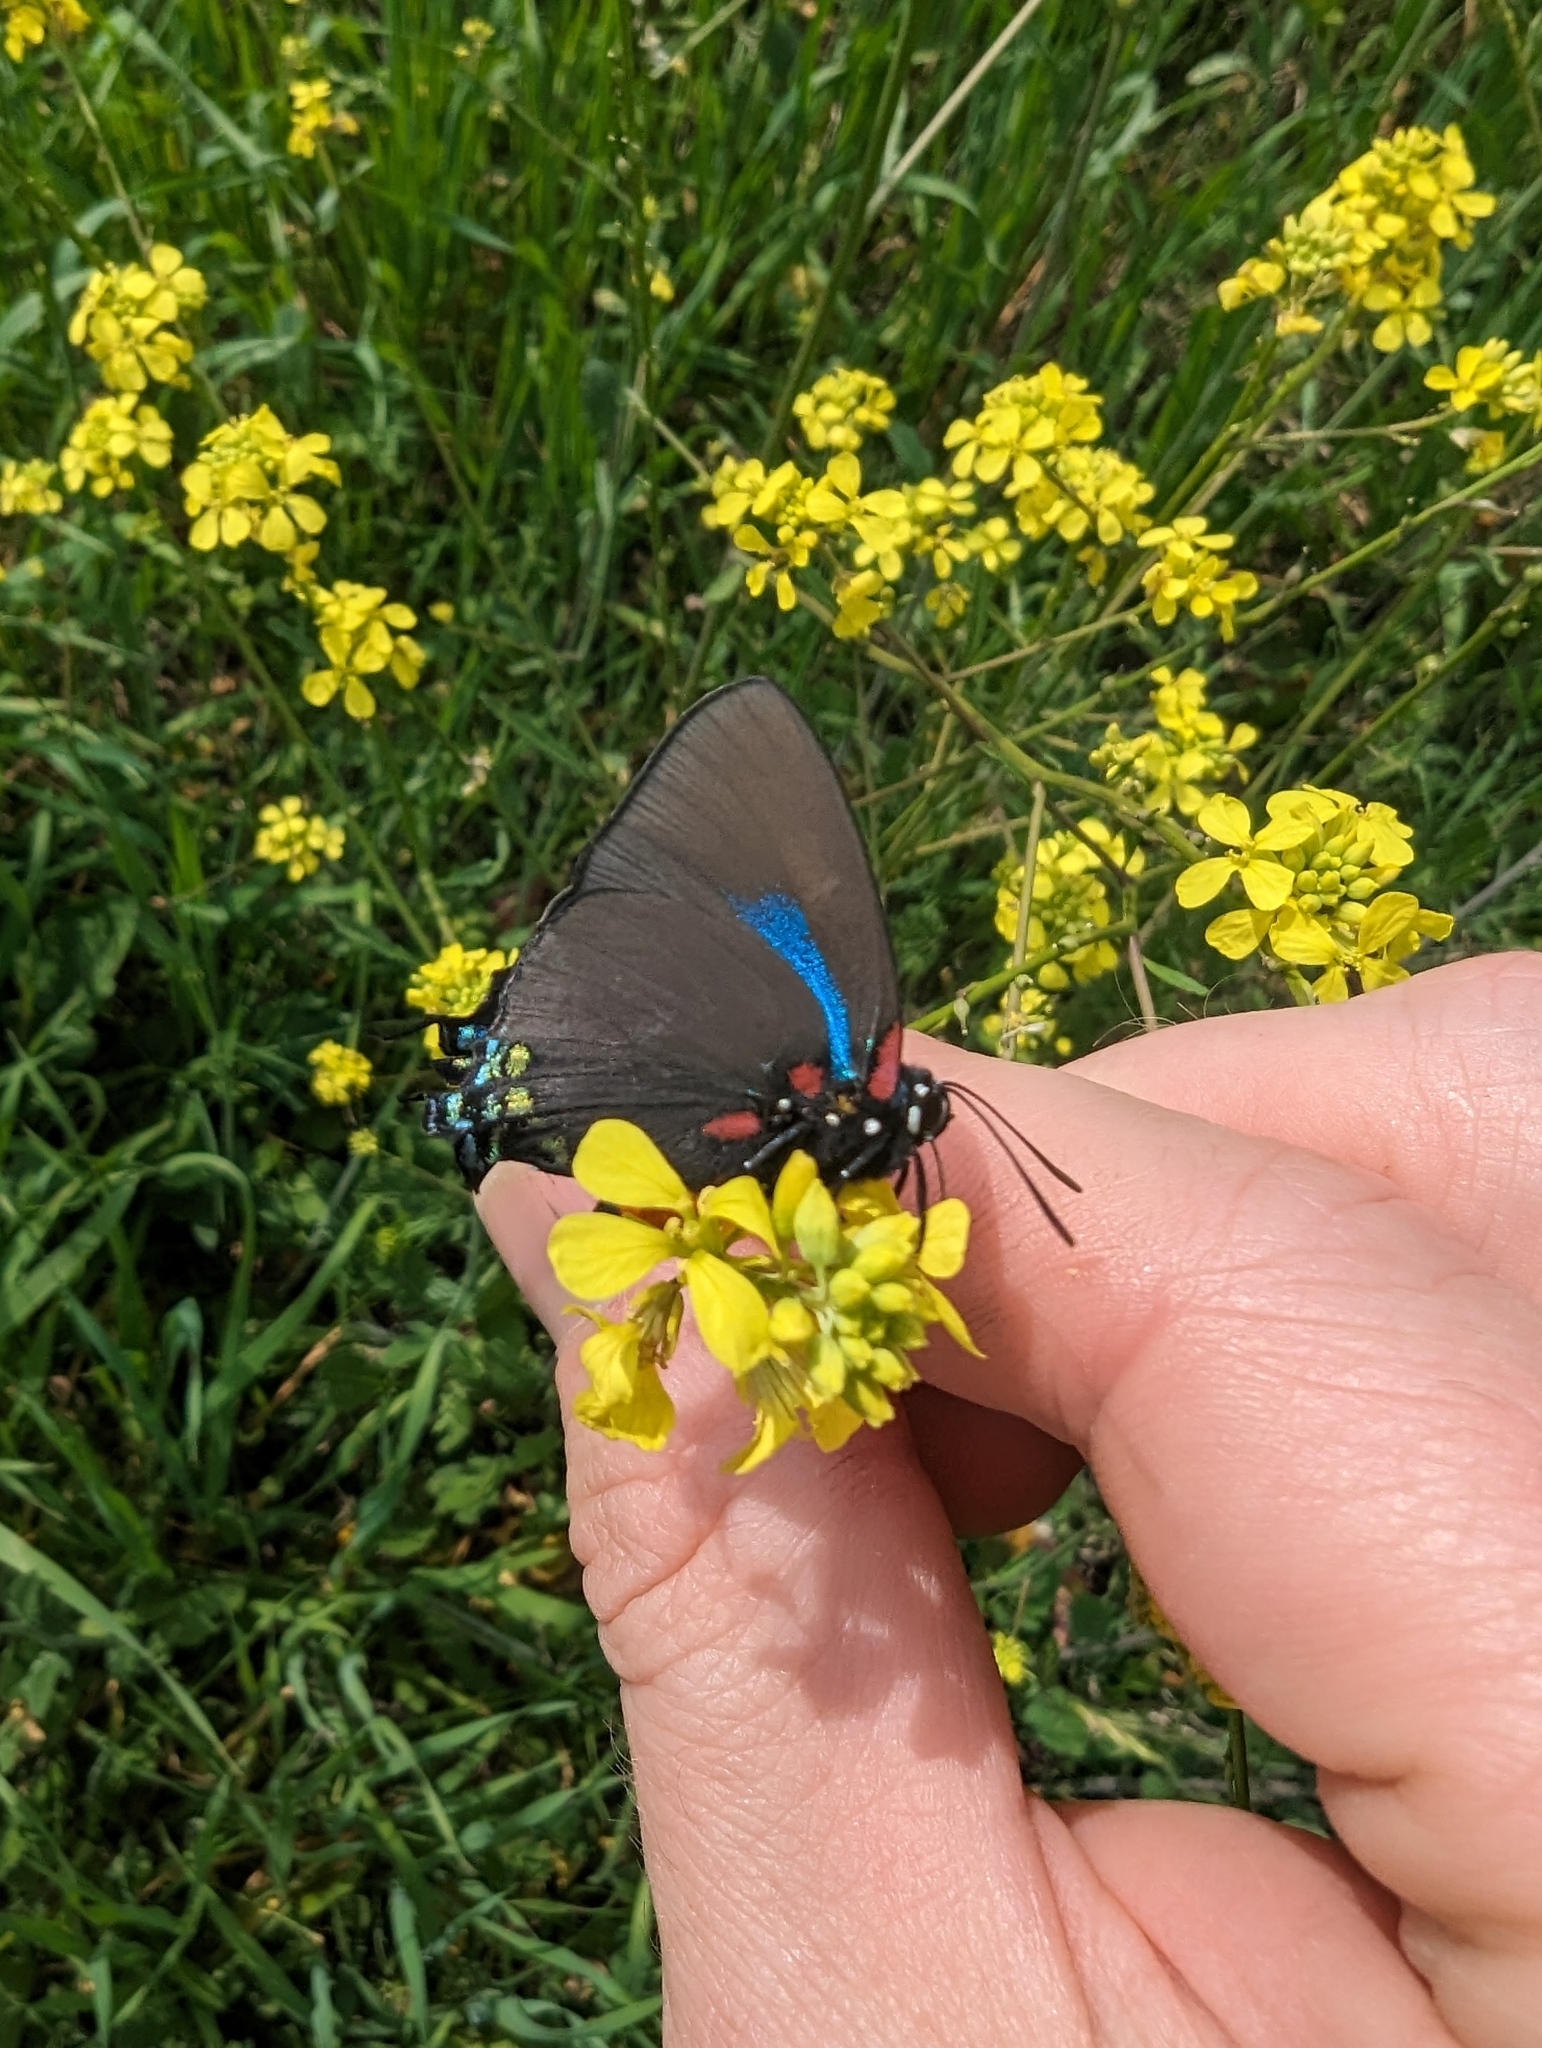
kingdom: Animalia
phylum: Arthropoda
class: Insecta
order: Lepidoptera
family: Lycaenidae
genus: Atlides
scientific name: Atlides halesus
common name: Great purple hairstreak
